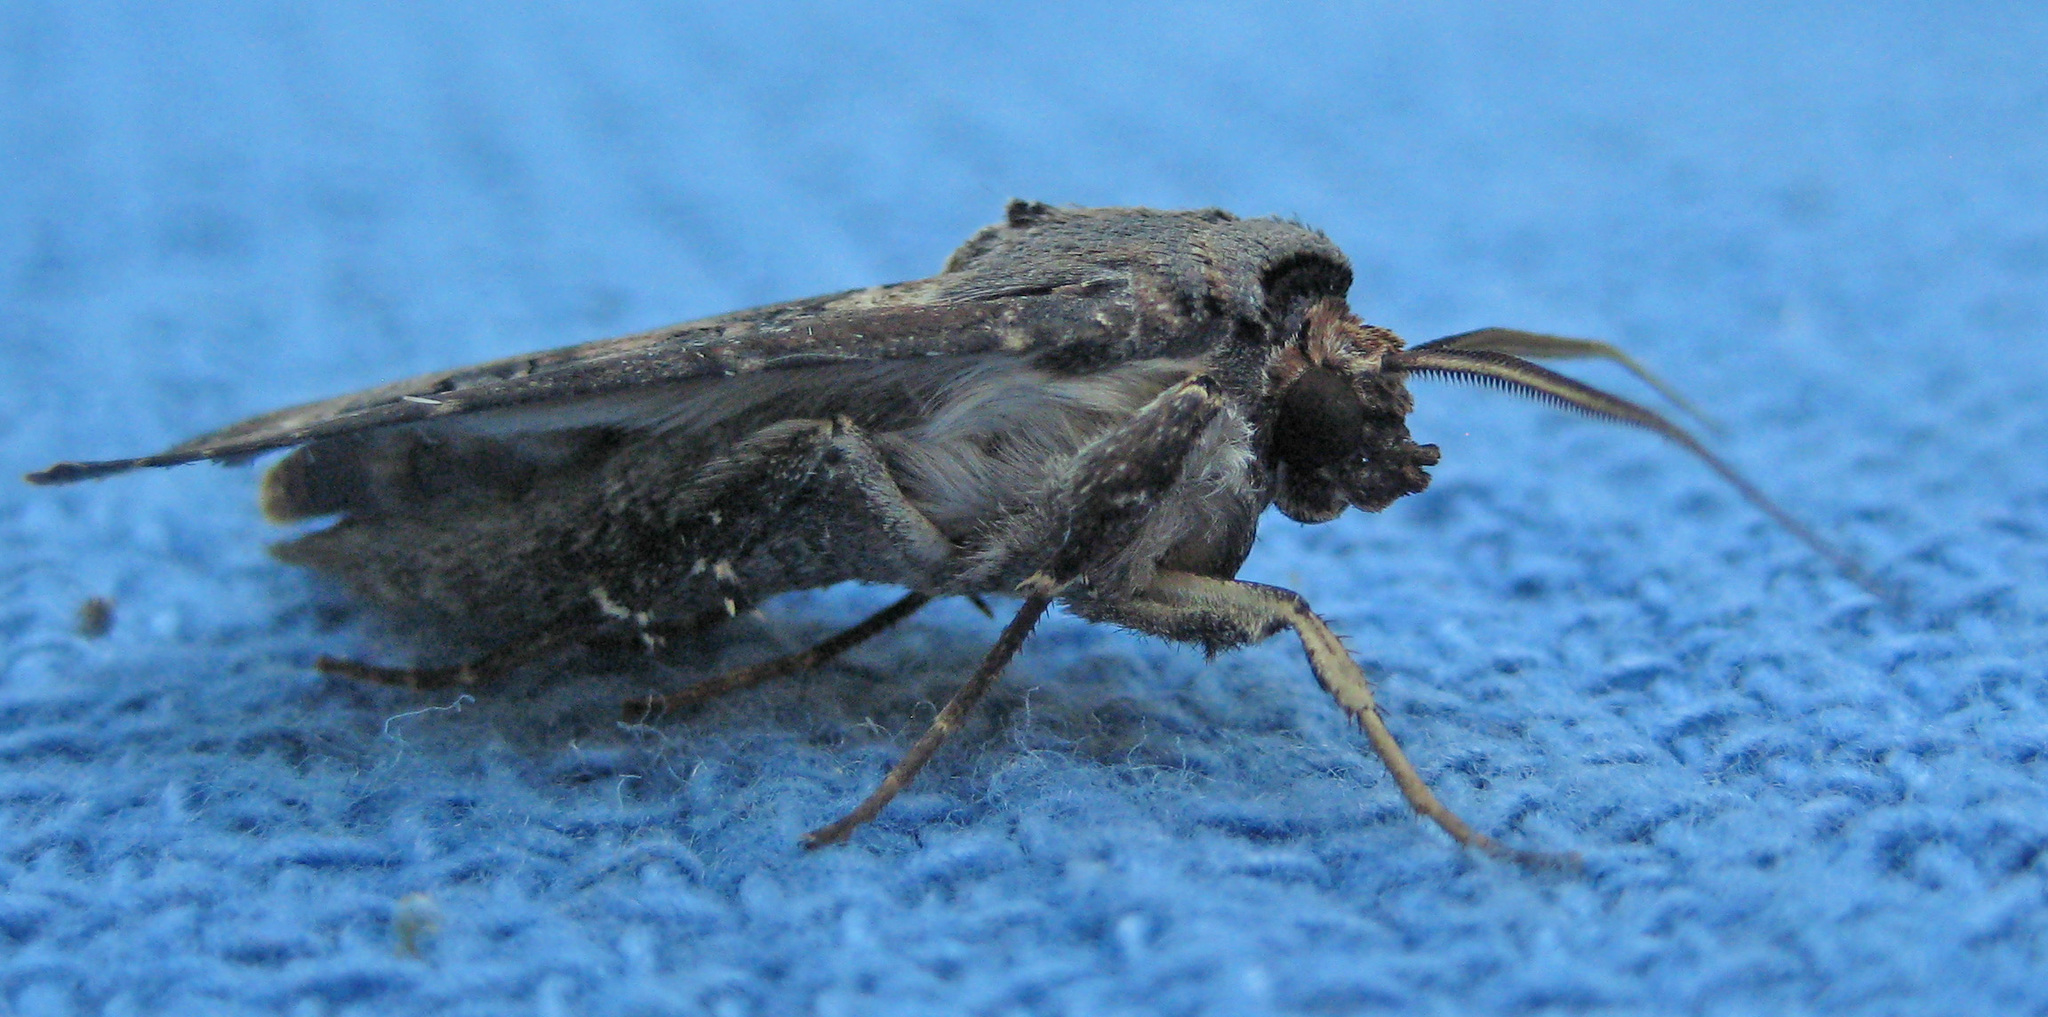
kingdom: Animalia
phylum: Arthropoda
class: Insecta
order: Lepidoptera
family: Noctuidae
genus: Agrotis
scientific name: Agrotis ipsilon
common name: Dark sword-grass
